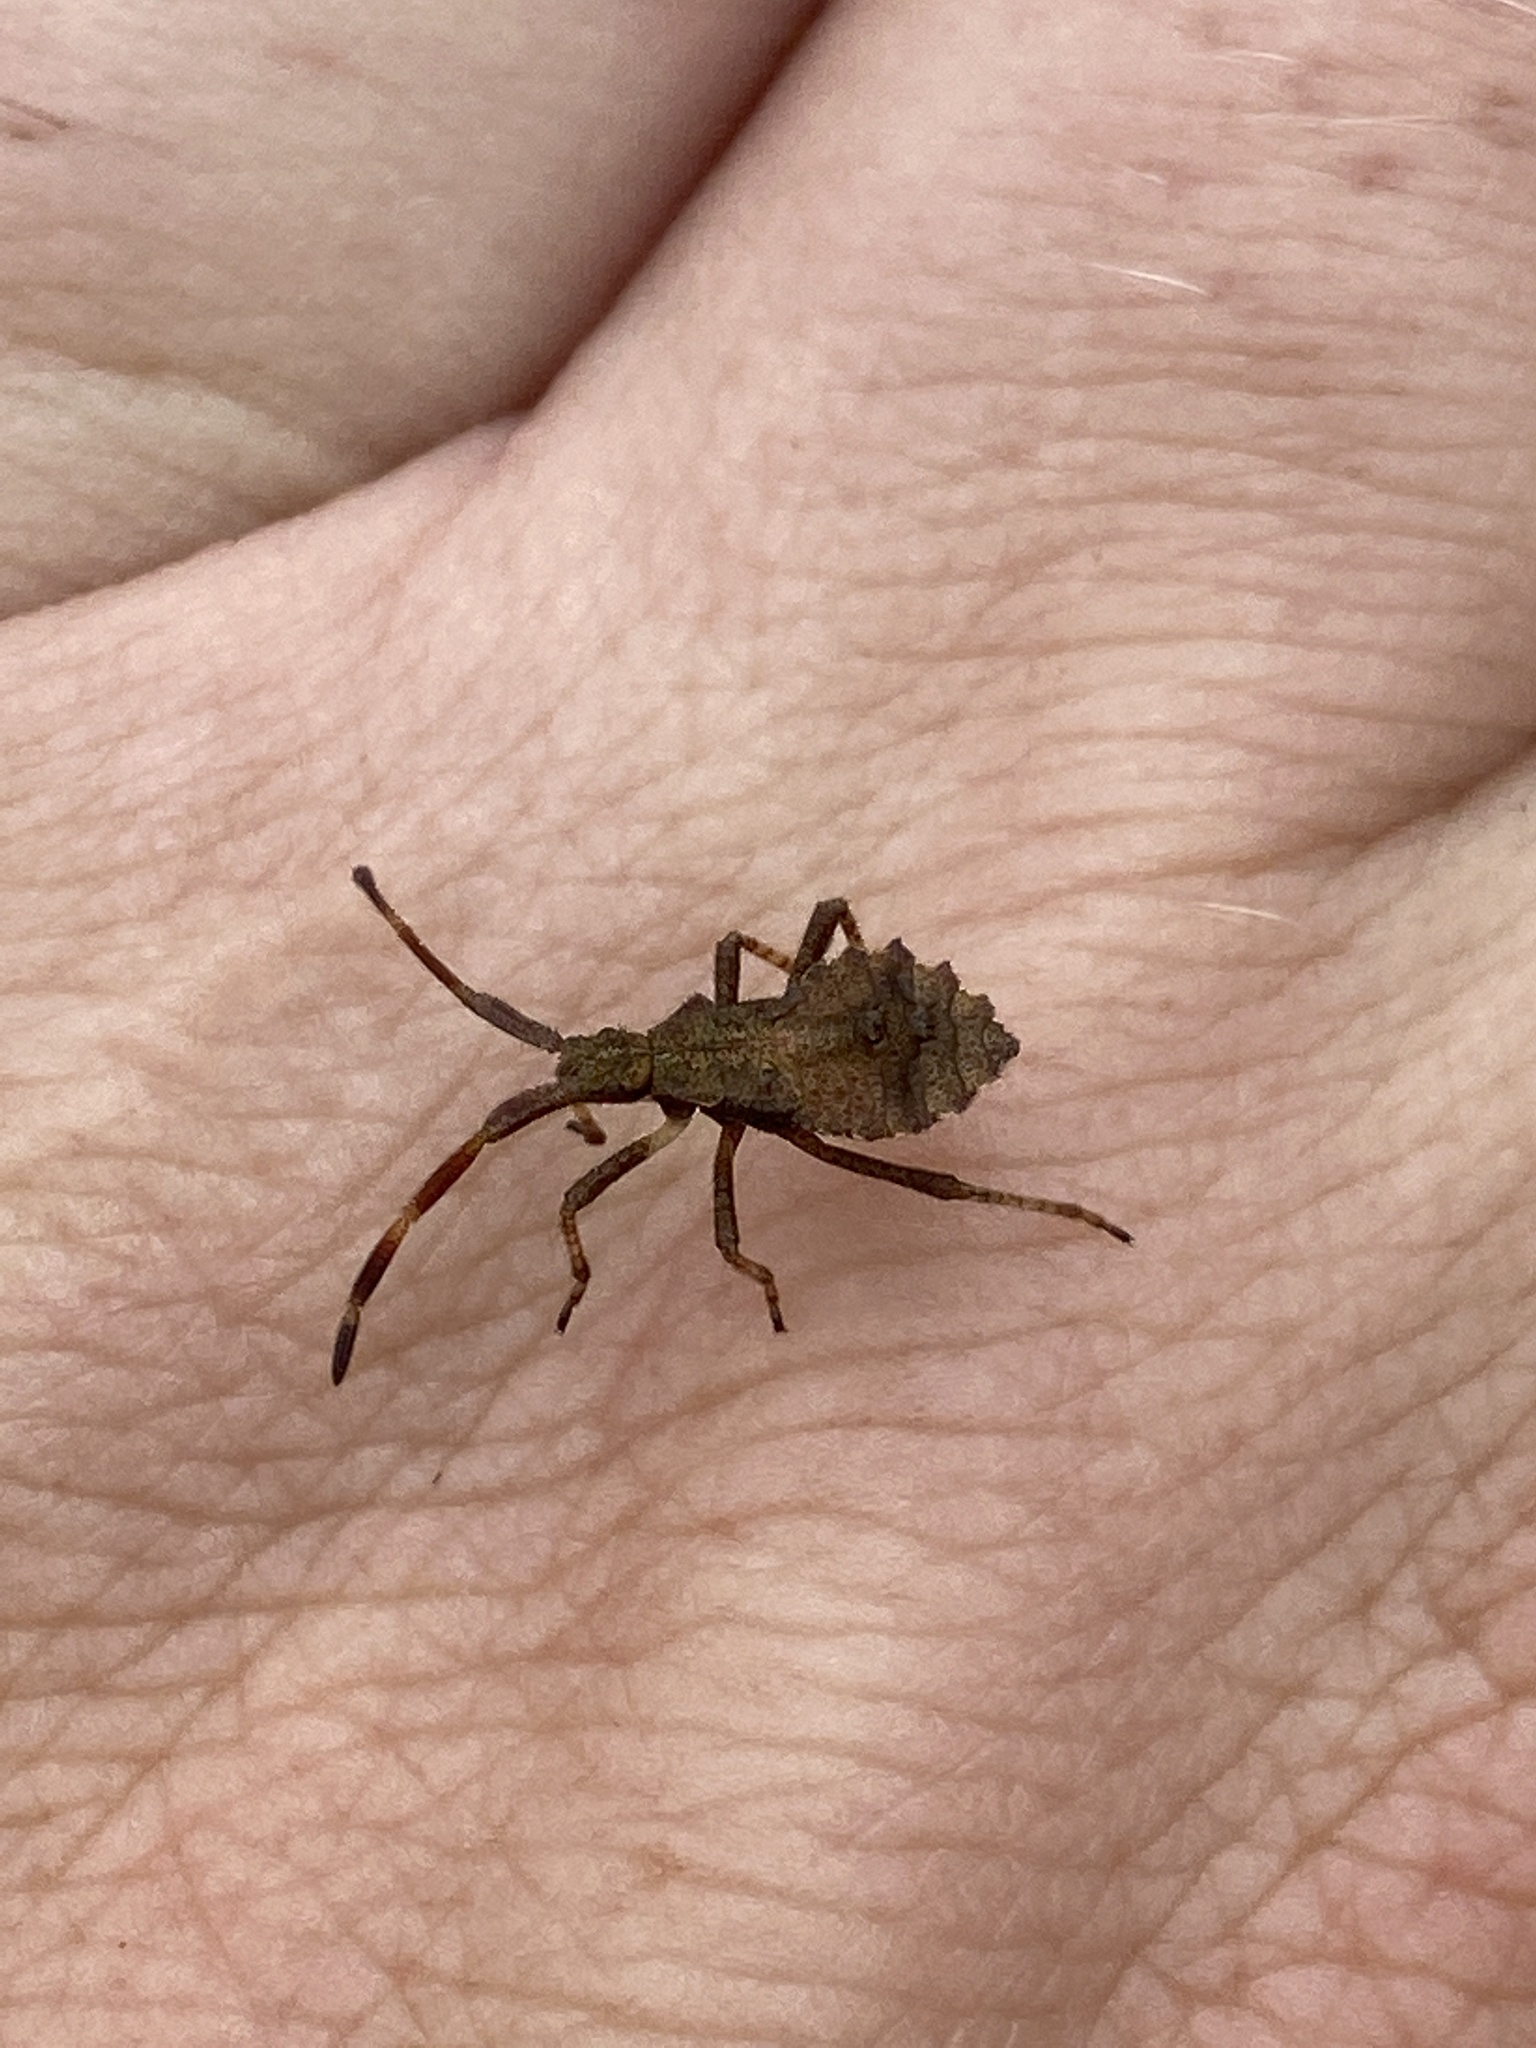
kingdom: Animalia
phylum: Arthropoda
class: Insecta
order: Hemiptera
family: Coreidae
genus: Coreus
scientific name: Coreus marginatus
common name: Dock bug
